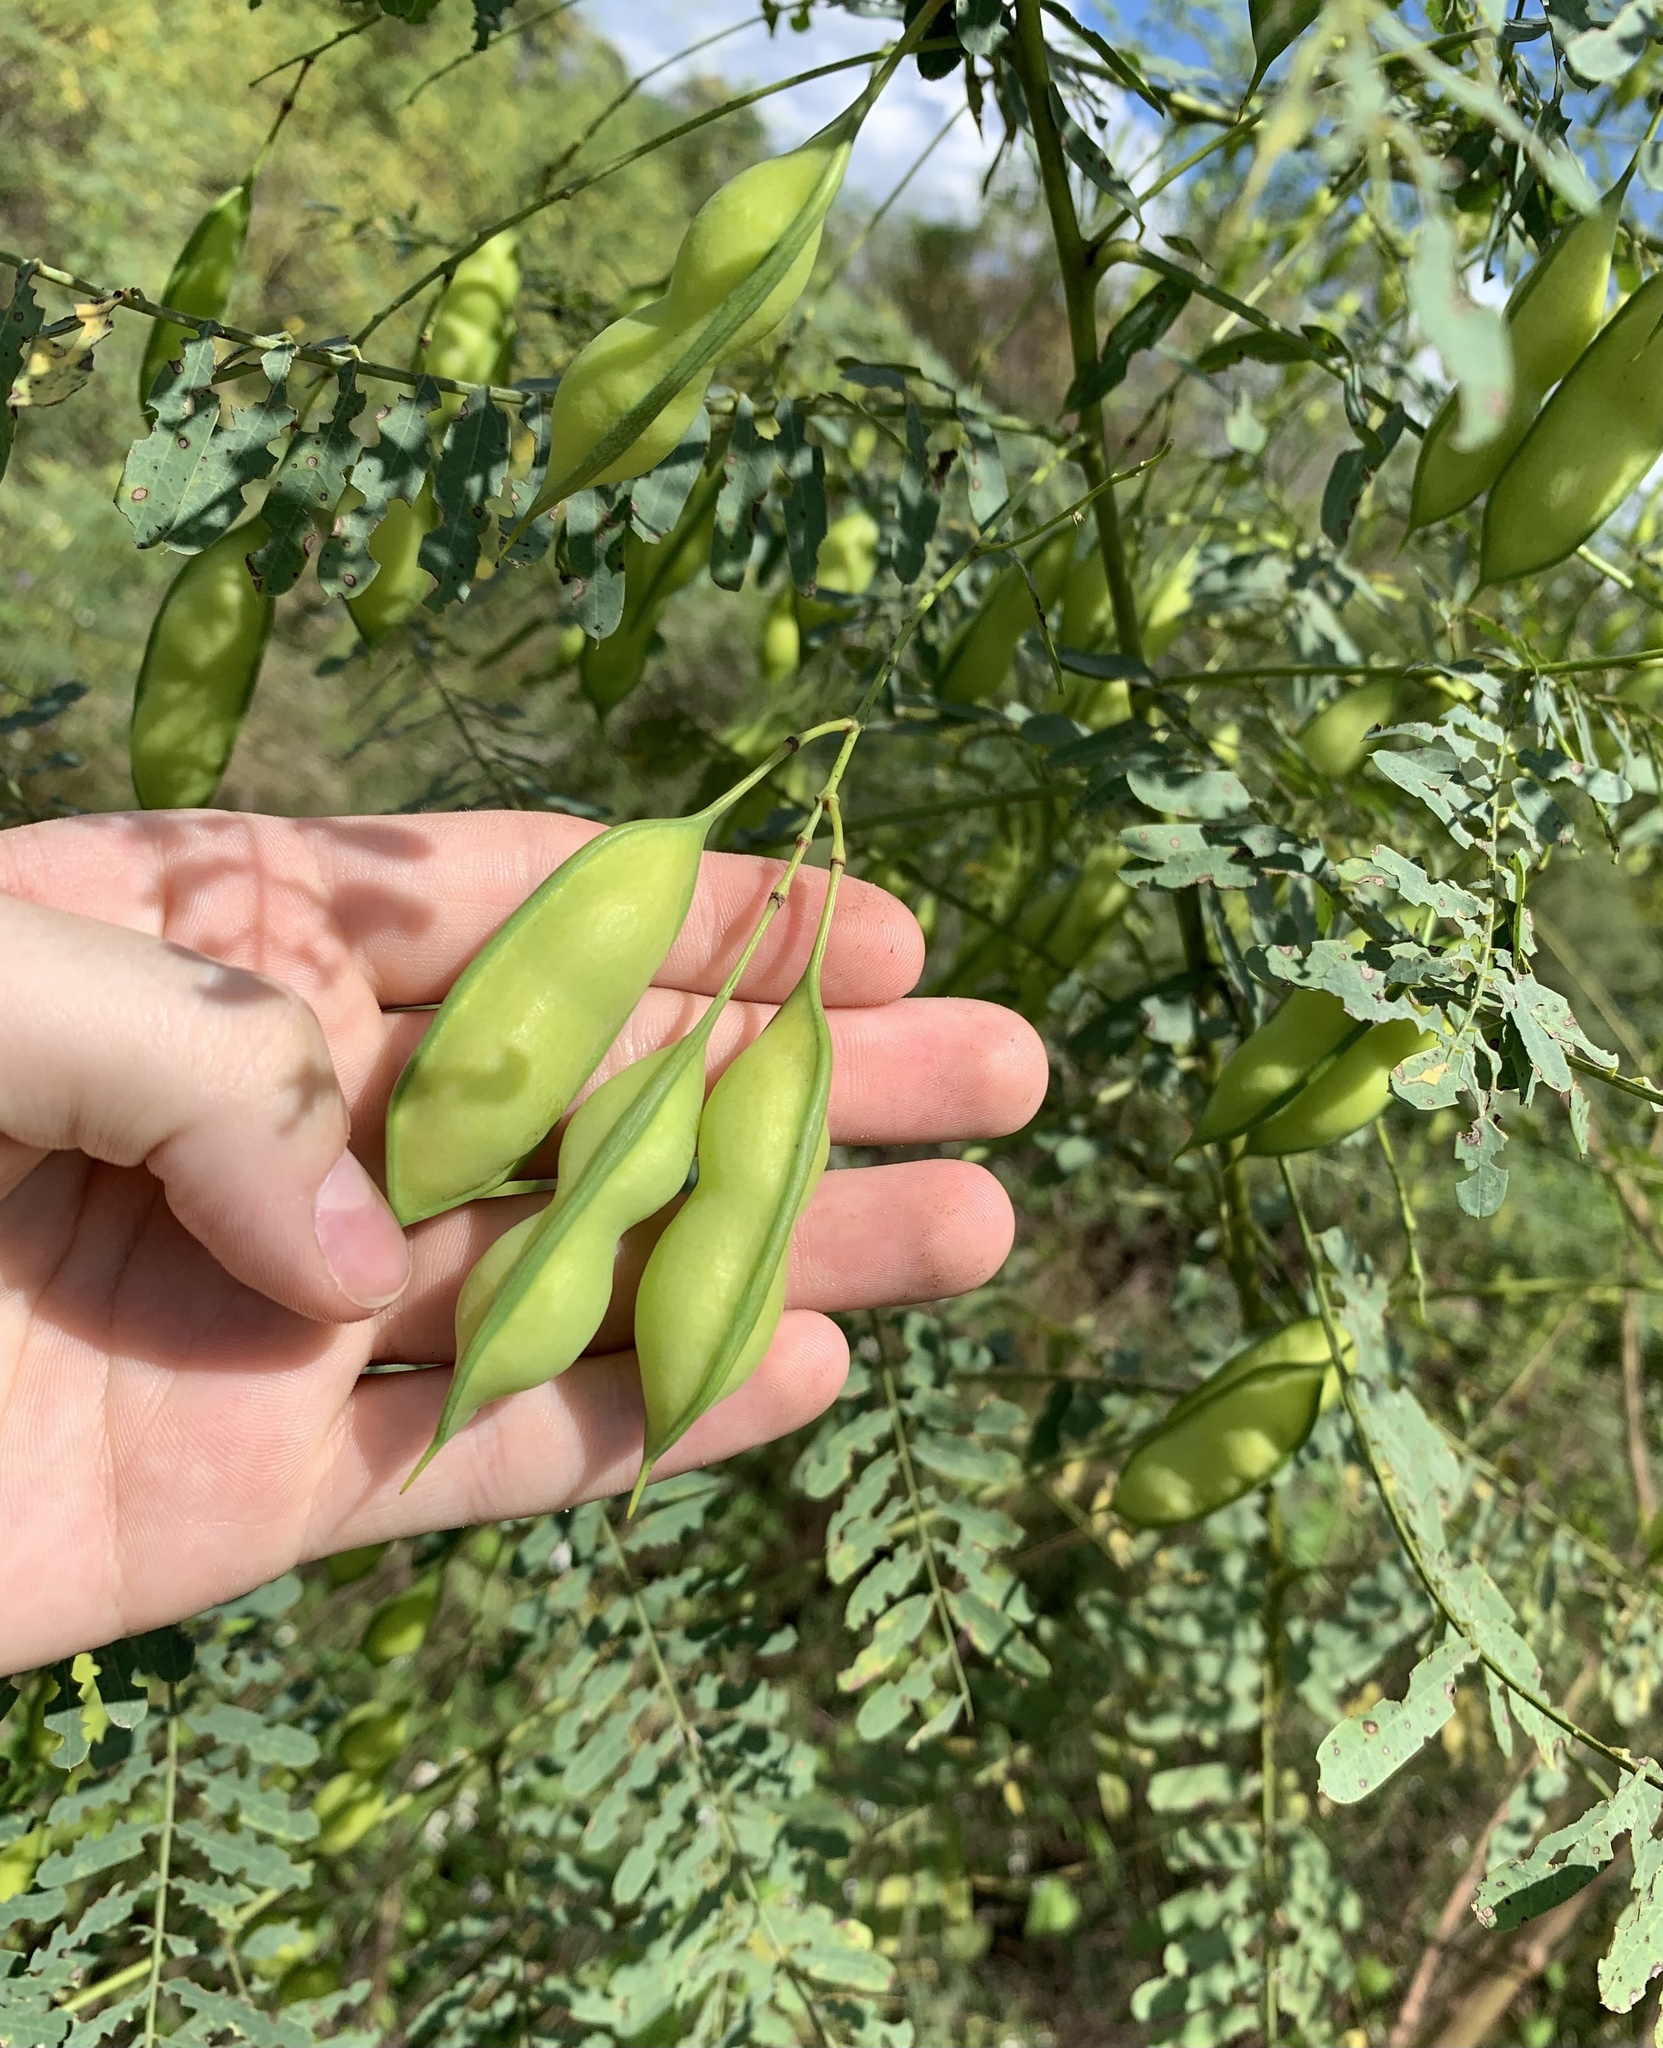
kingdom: Plantae
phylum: Tracheophyta
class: Magnoliopsida
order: Fabales
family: Fabaceae
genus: Sesbania
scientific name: Sesbania vesicaria
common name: Bagpod
